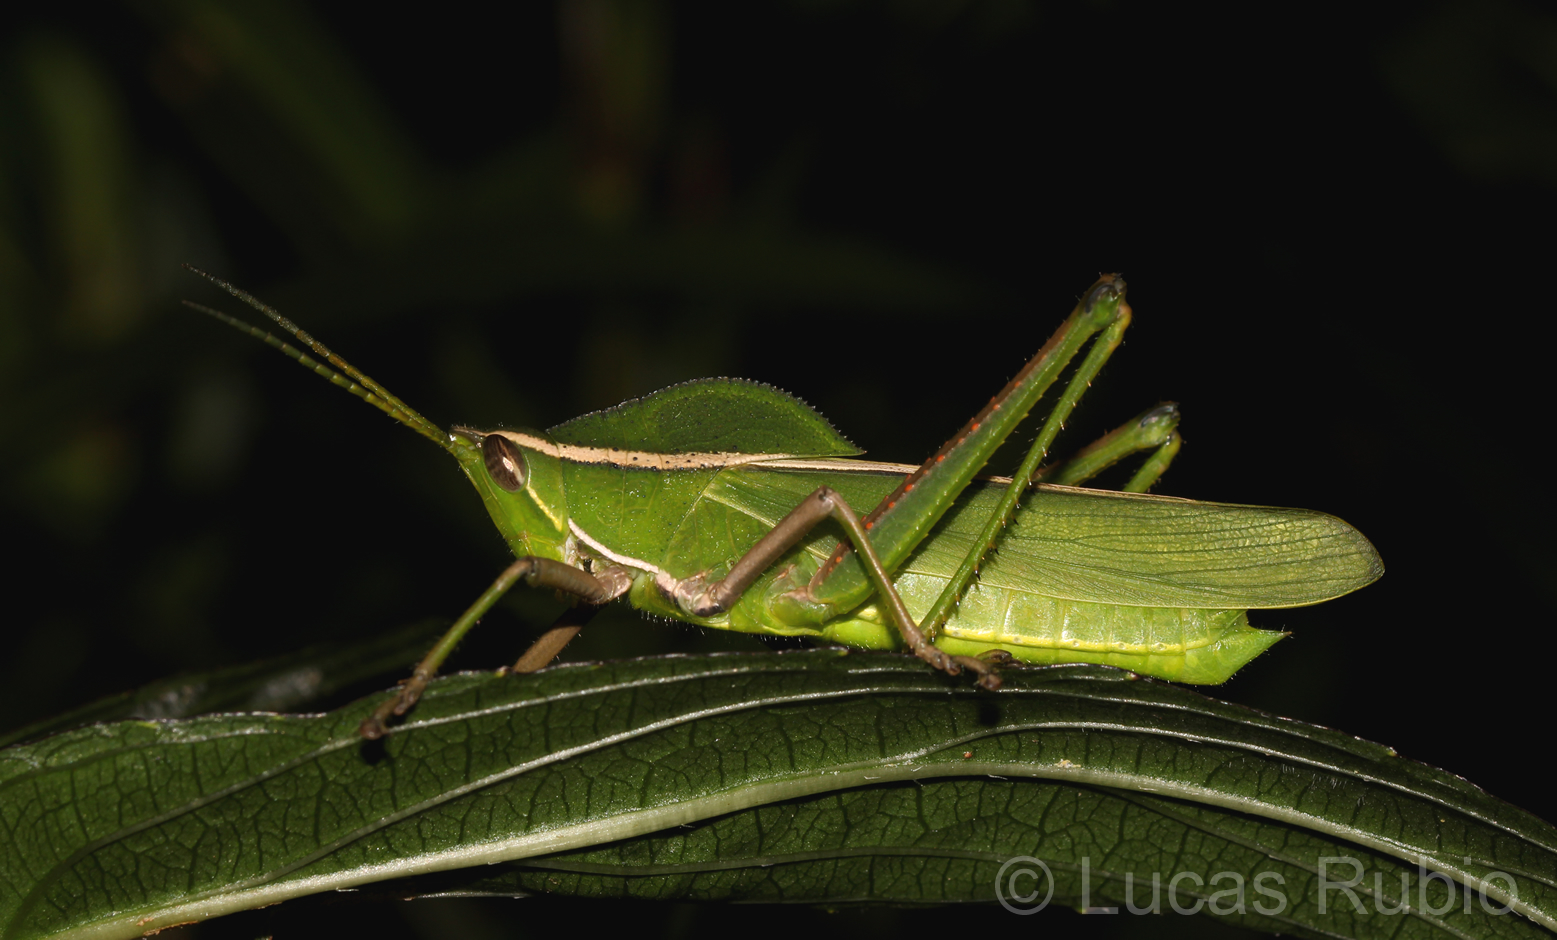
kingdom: Animalia
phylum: Arthropoda
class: Insecta
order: Orthoptera
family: Romaleidae
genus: Prionolopha
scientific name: Prionolopha serrata
